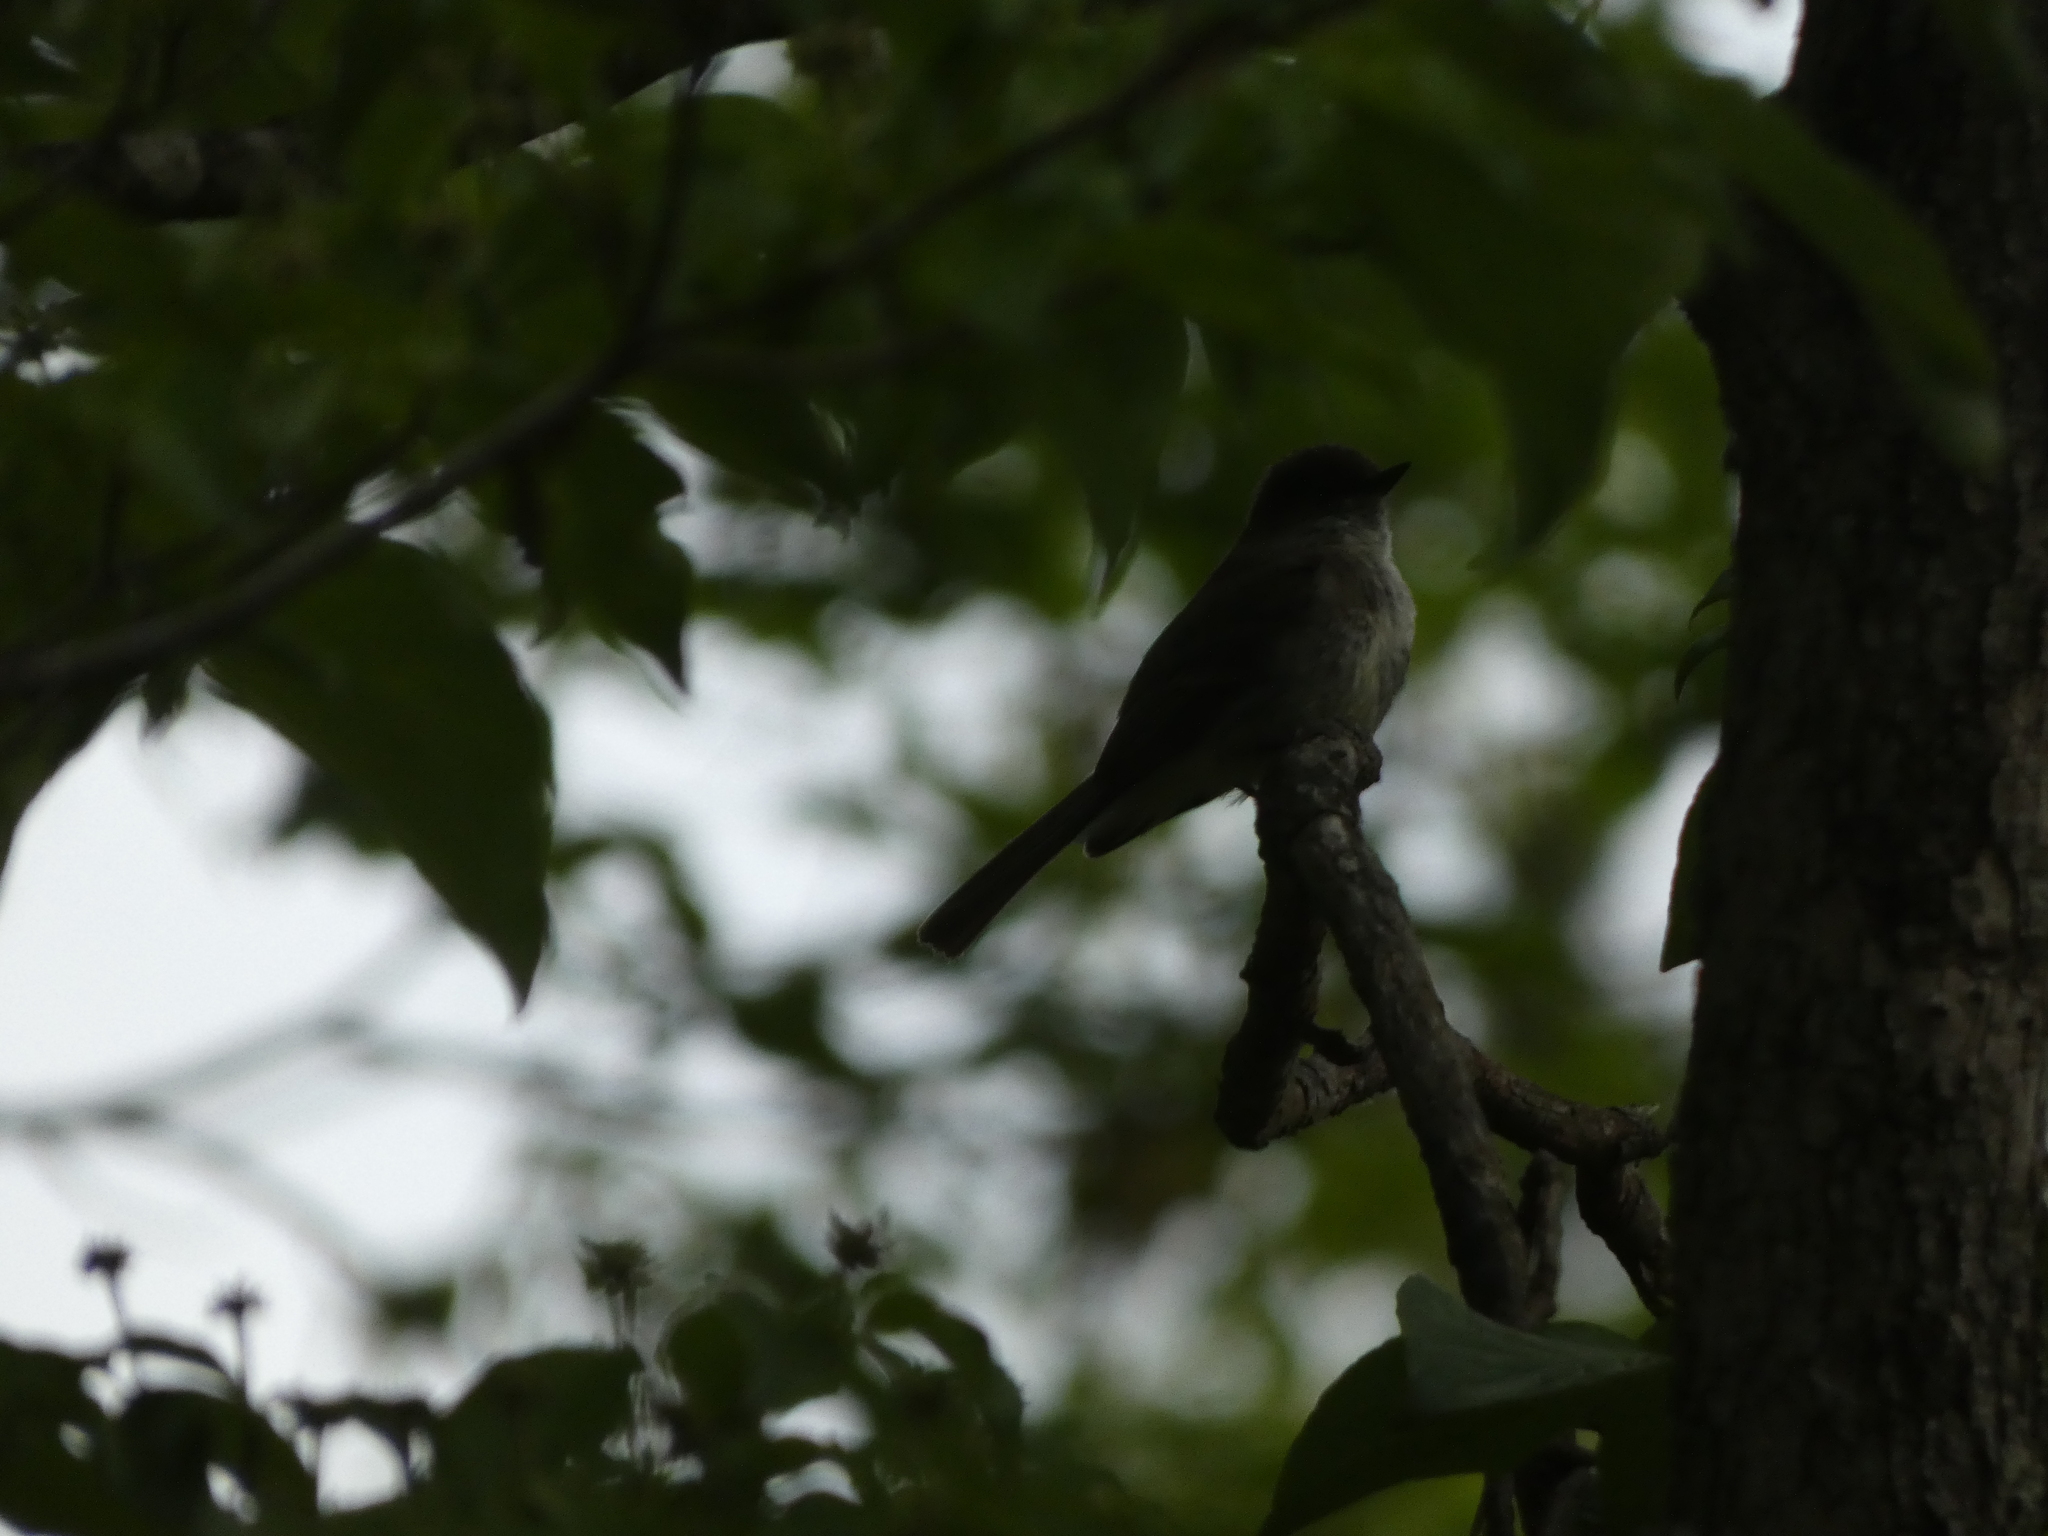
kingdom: Animalia
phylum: Chordata
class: Aves
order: Passeriformes
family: Tyrannidae
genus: Sayornis
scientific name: Sayornis phoebe
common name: Eastern phoebe
